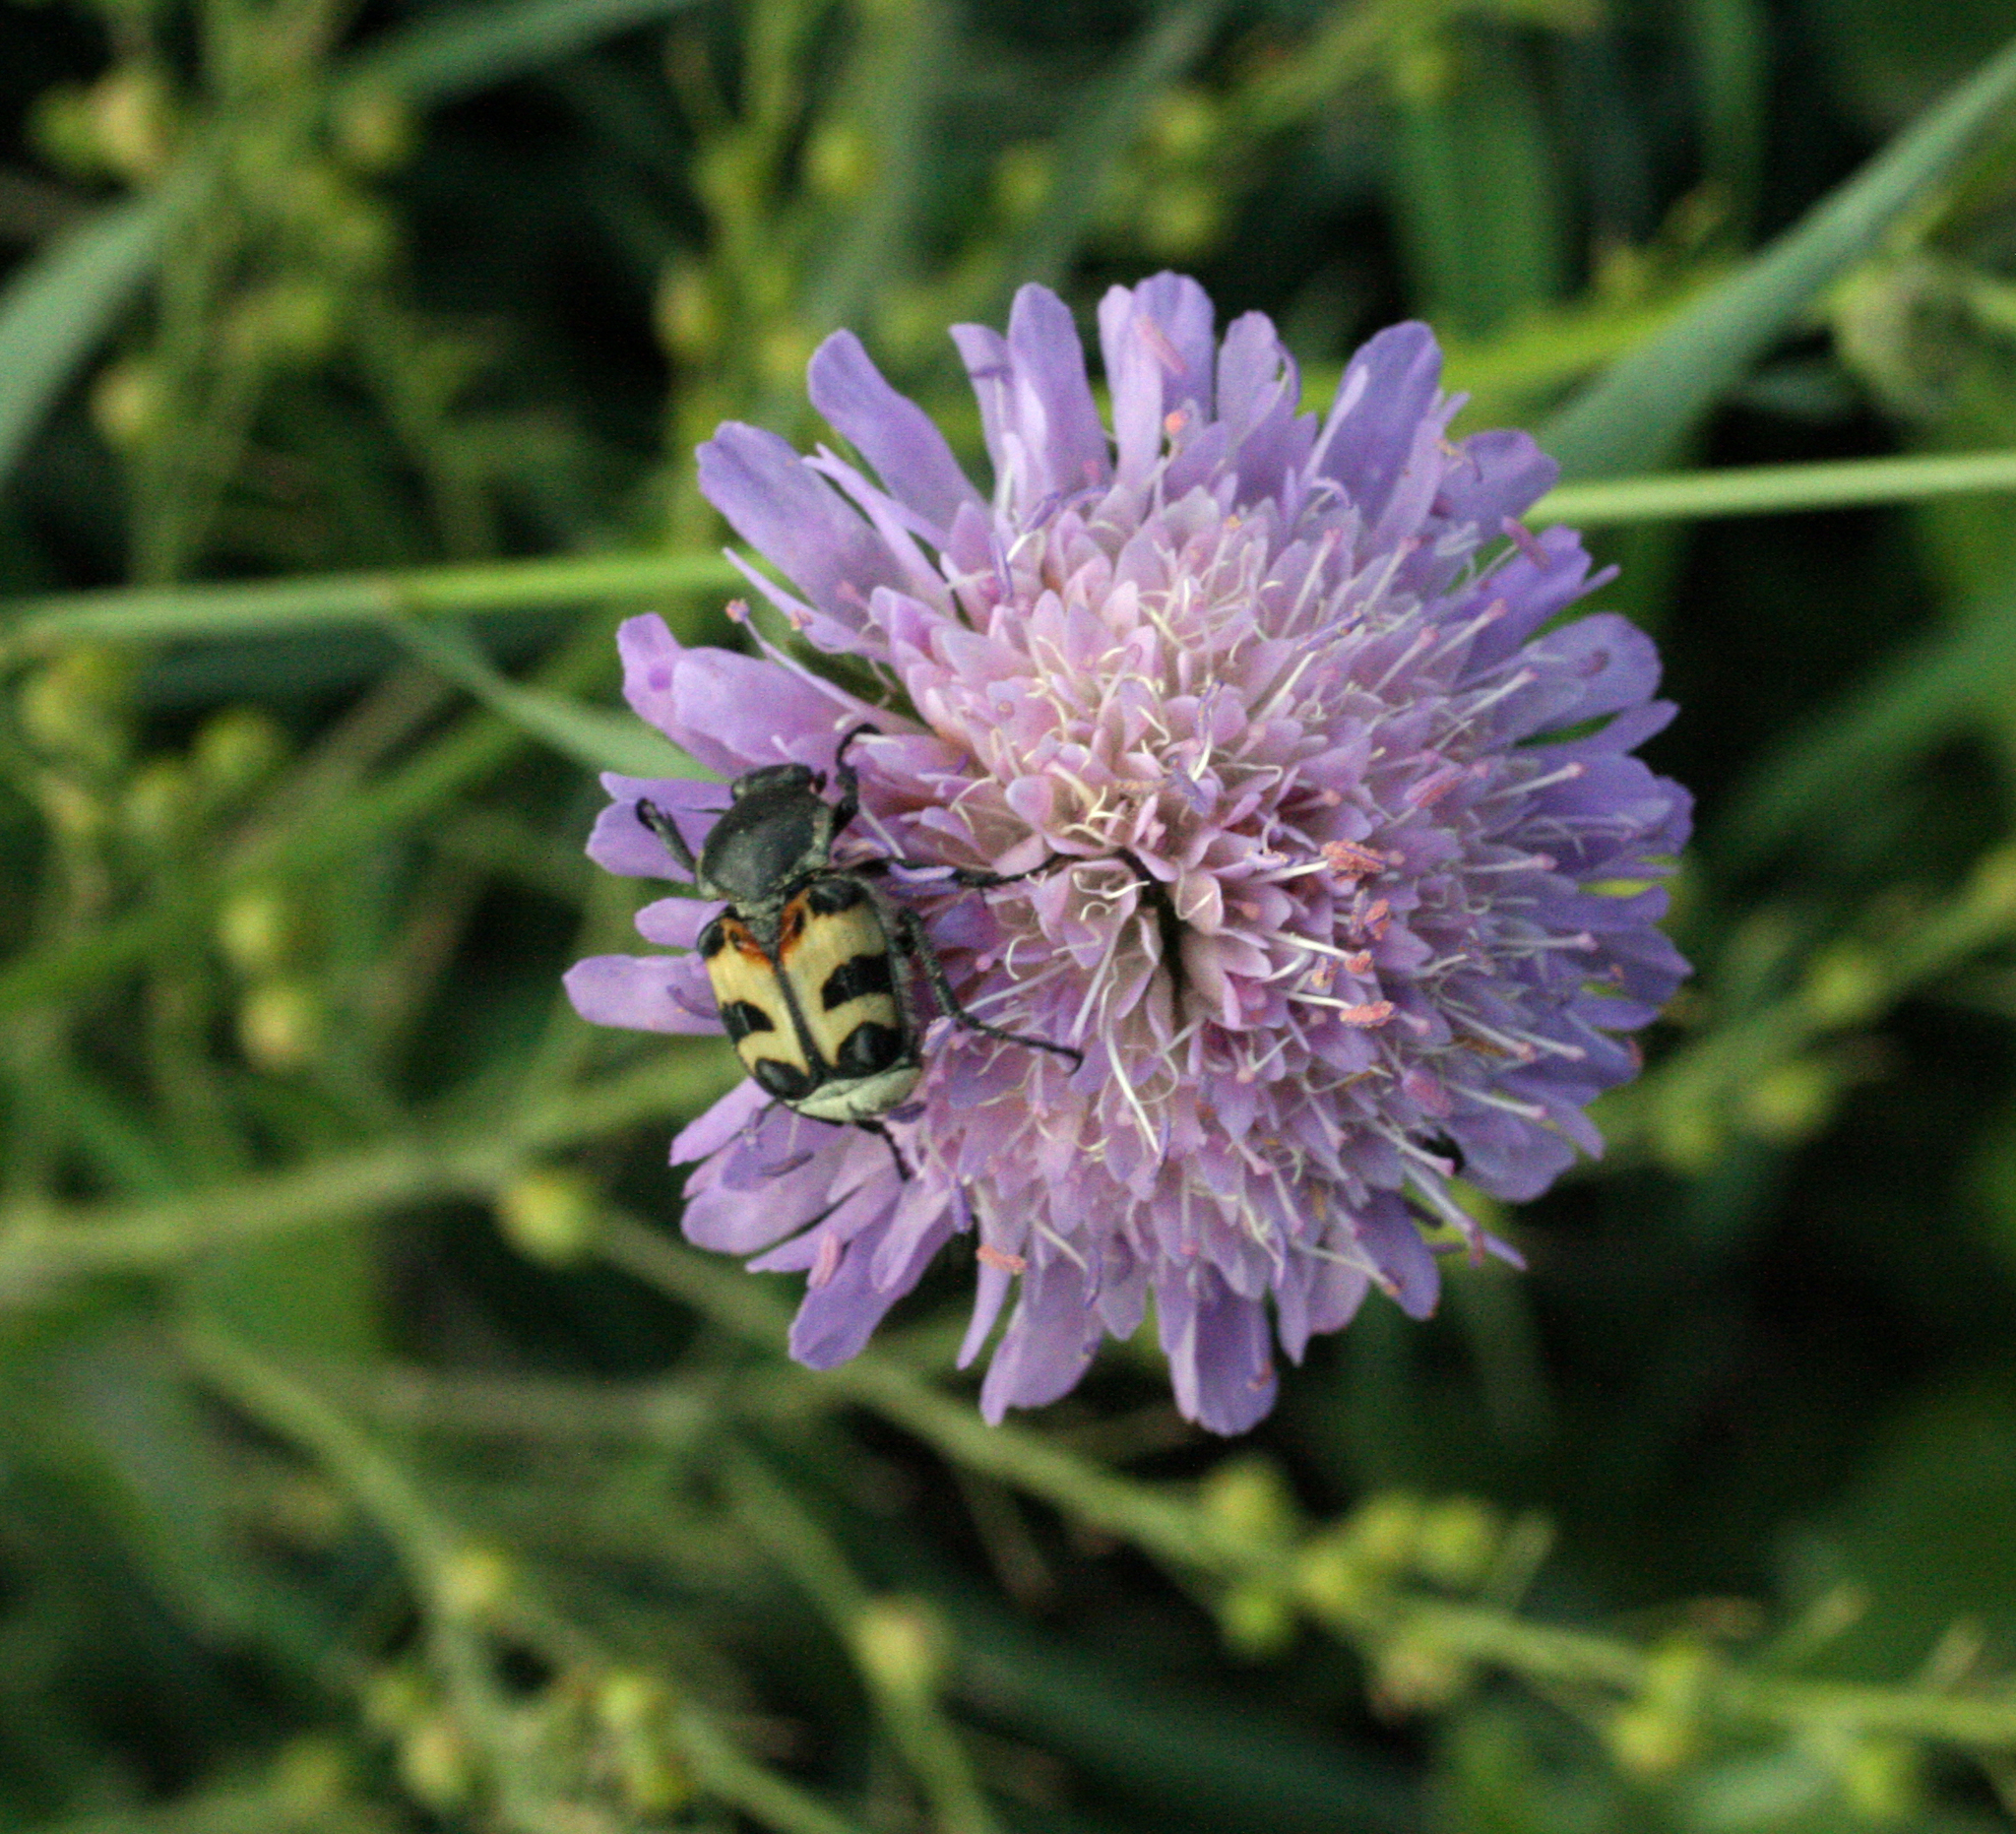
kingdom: Animalia
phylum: Arthropoda
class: Insecta
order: Coleoptera
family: Scarabaeidae
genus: Trichius
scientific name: Trichius fasciatus
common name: Bee beetle
